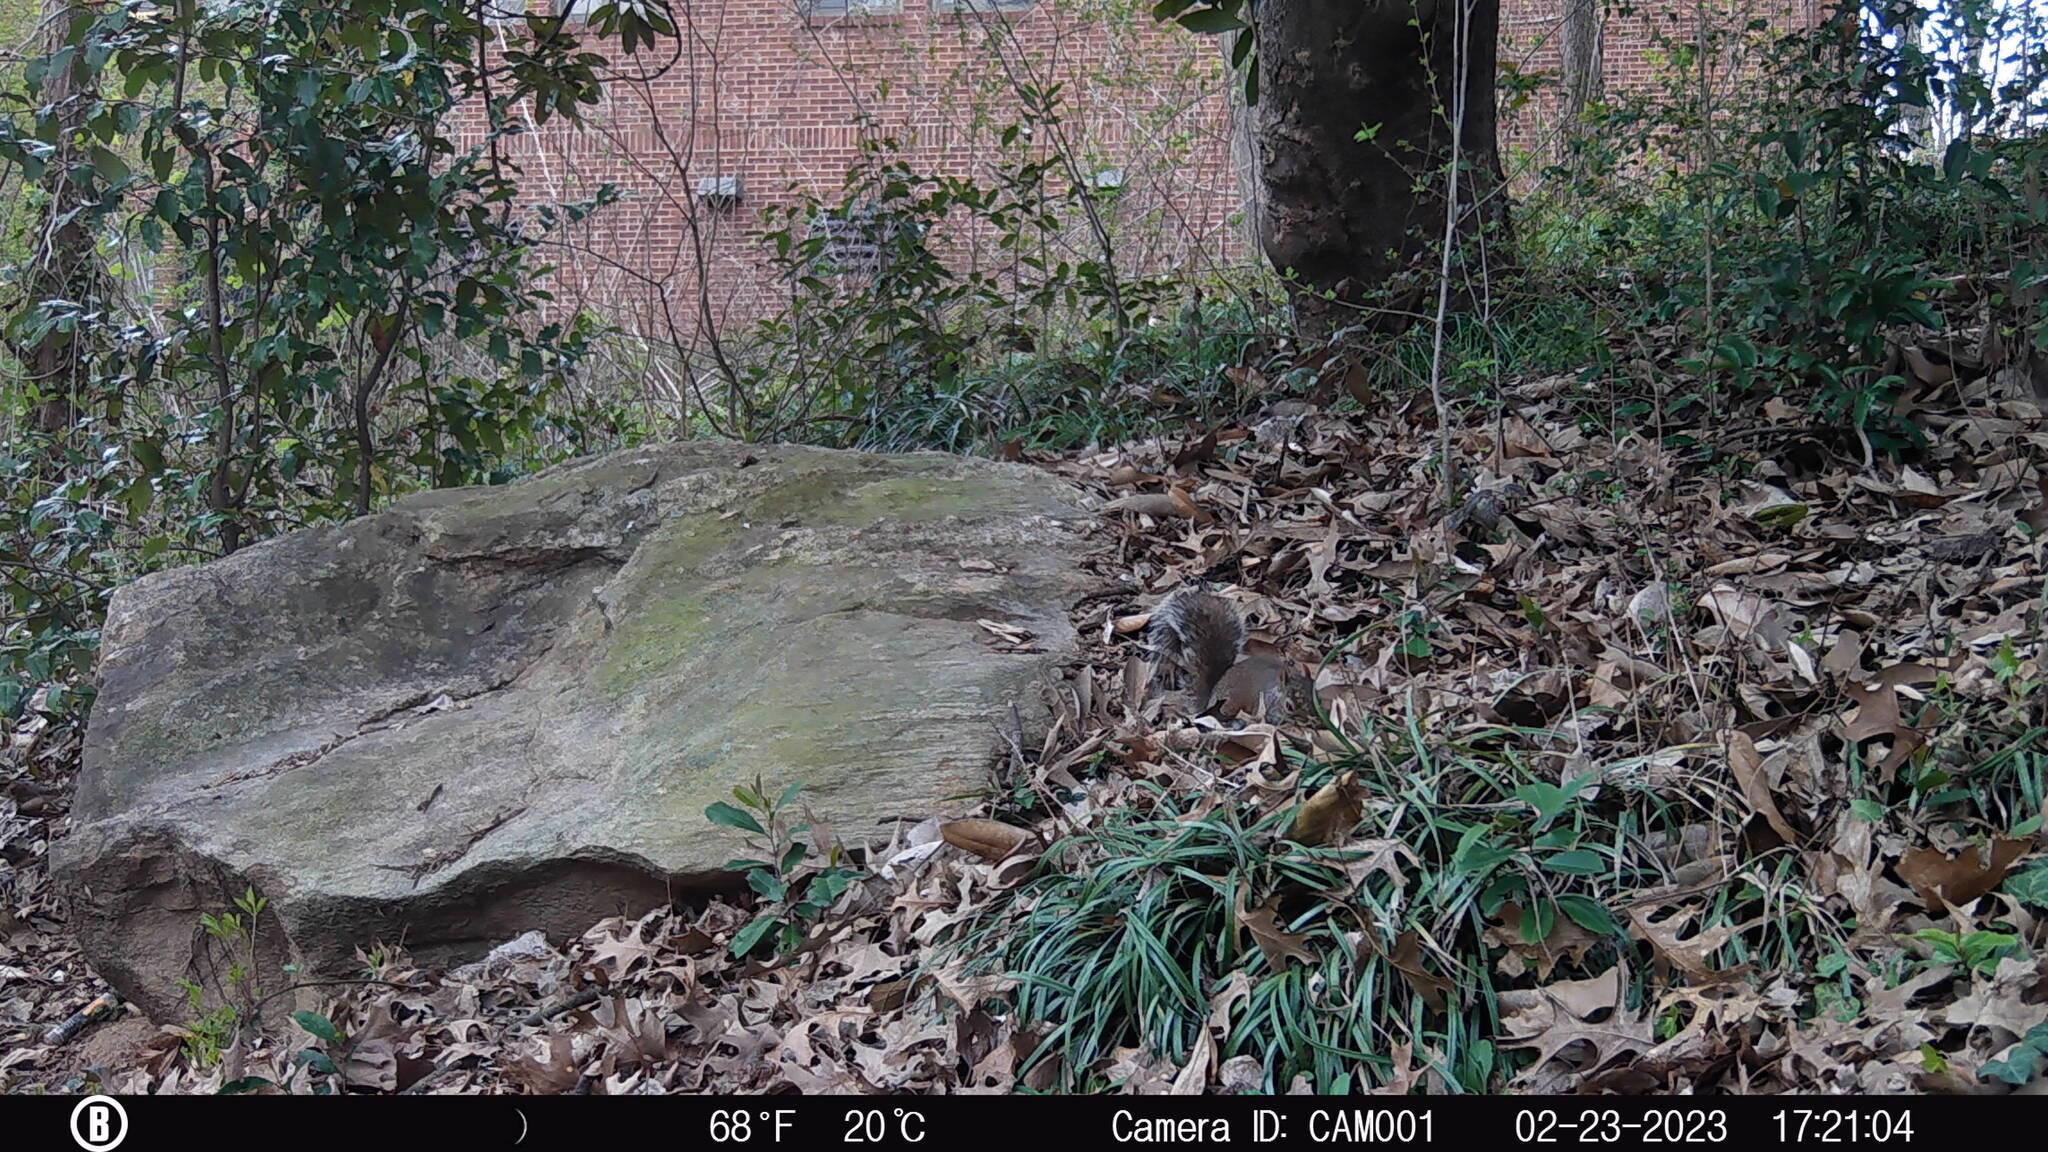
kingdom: Animalia
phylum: Chordata
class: Mammalia
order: Rodentia
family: Sciuridae
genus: Sciurus
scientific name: Sciurus carolinensis
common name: Eastern gray squirrel
